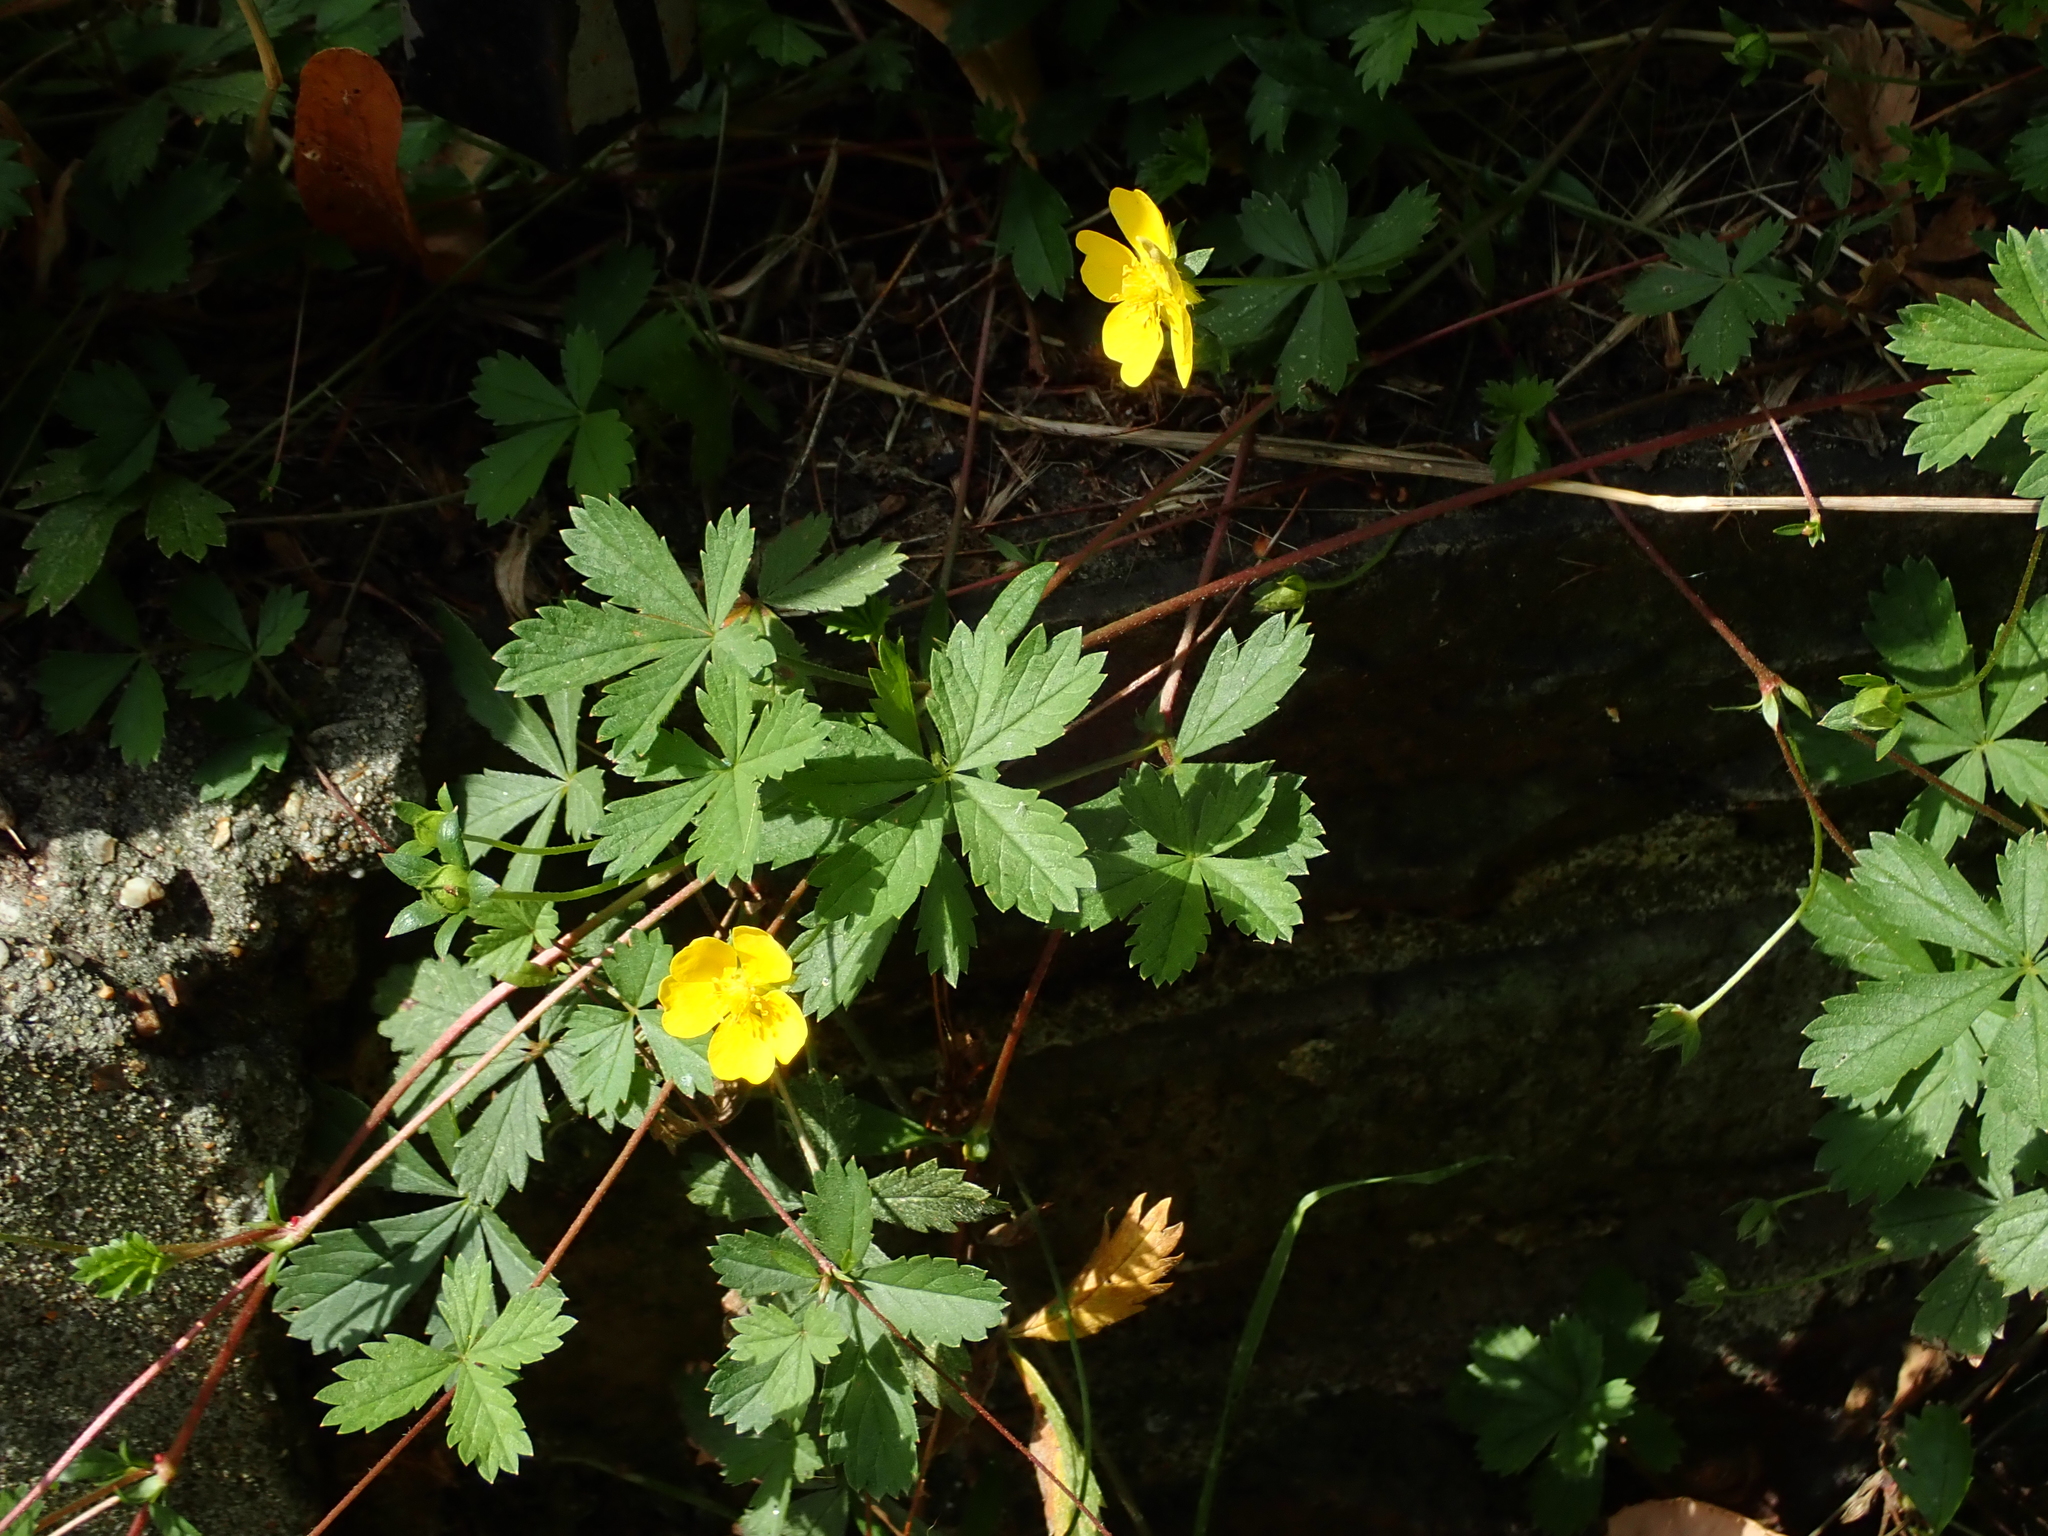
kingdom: Plantae
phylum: Tracheophyta
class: Magnoliopsida
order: Rosales
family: Rosaceae
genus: Potentilla
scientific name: Potentilla reptans
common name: Creeping cinquefoil
